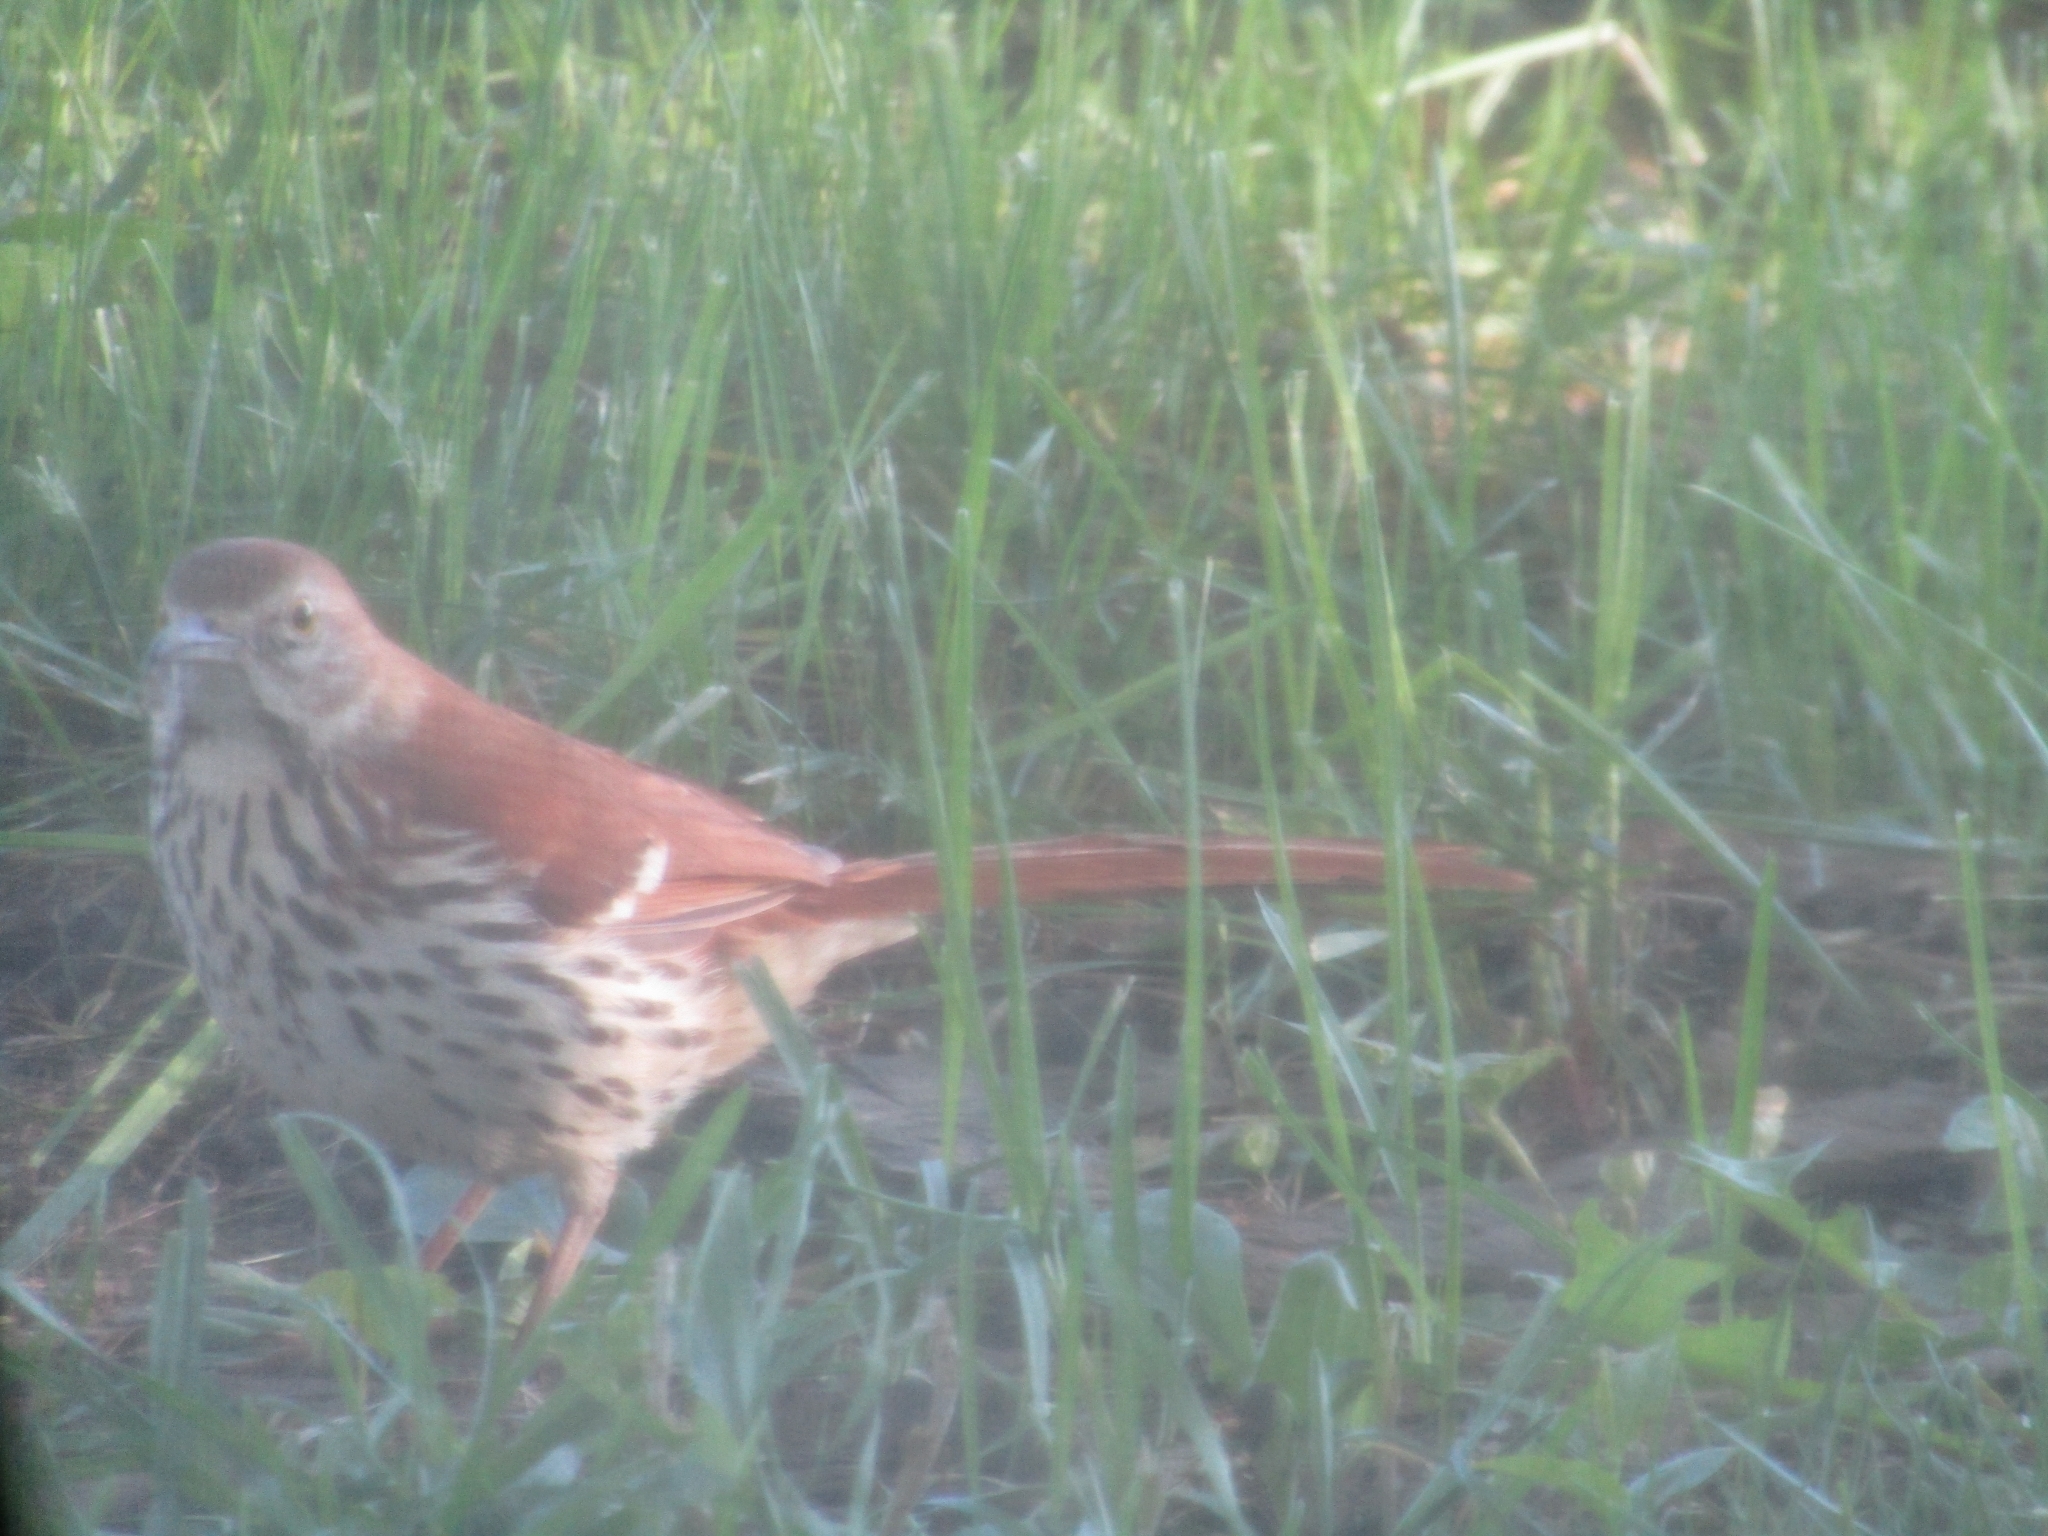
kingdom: Animalia
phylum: Chordata
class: Aves
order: Passeriformes
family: Mimidae
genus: Toxostoma
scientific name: Toxostoma rufum
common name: Brown thrasher
